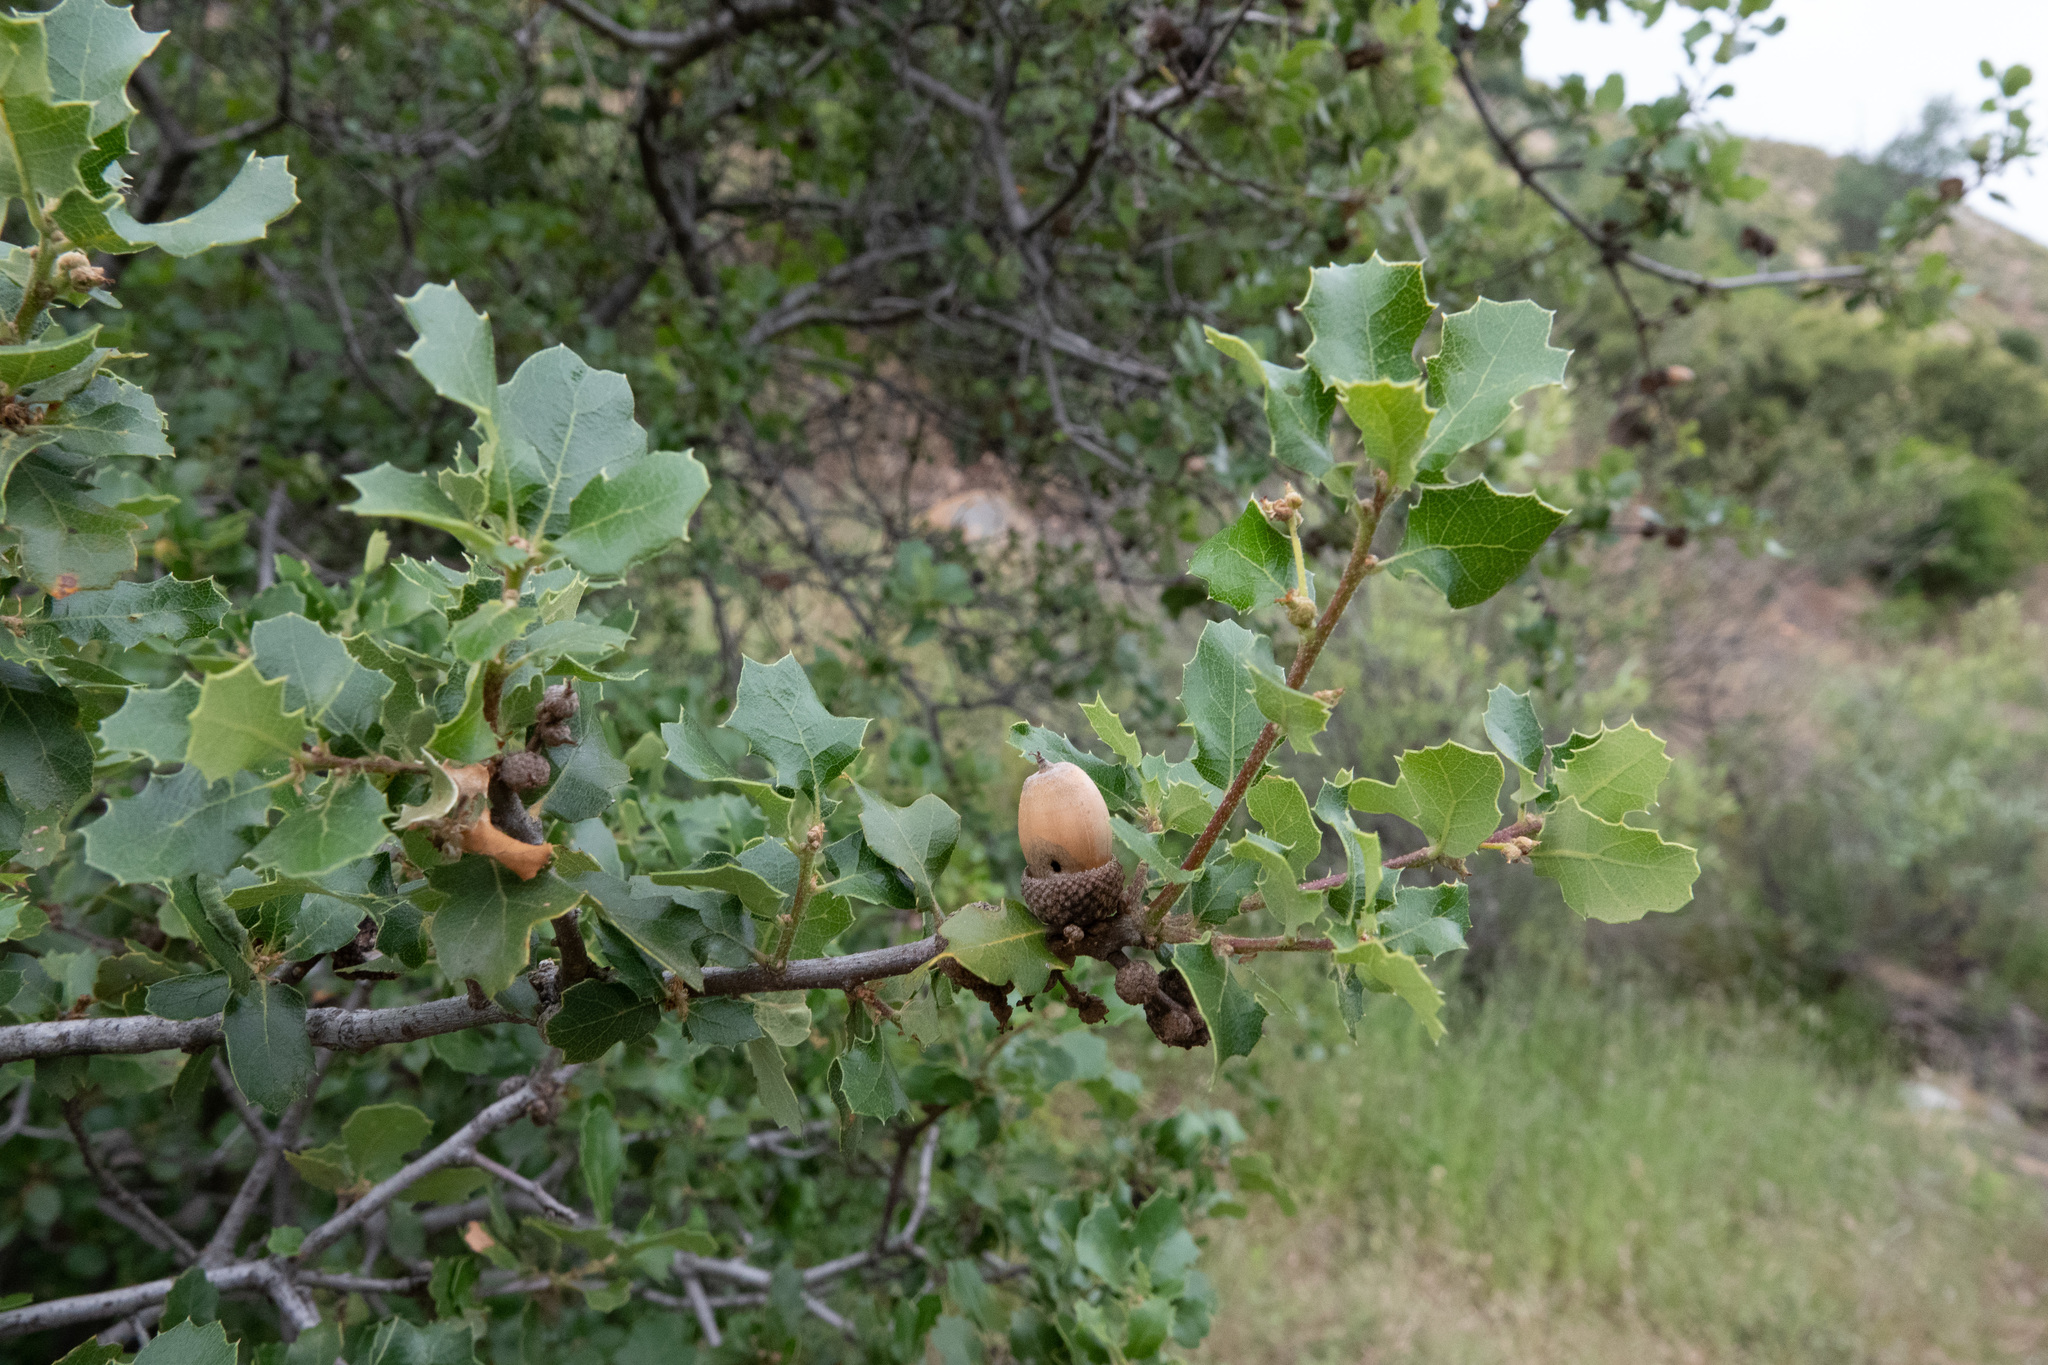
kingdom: Plantae
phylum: Tracheophyta
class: Magnoliopsida
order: Fagales
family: Fagaceae
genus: Quercus
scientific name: Quercus berberidifolia
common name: California scrub oak
